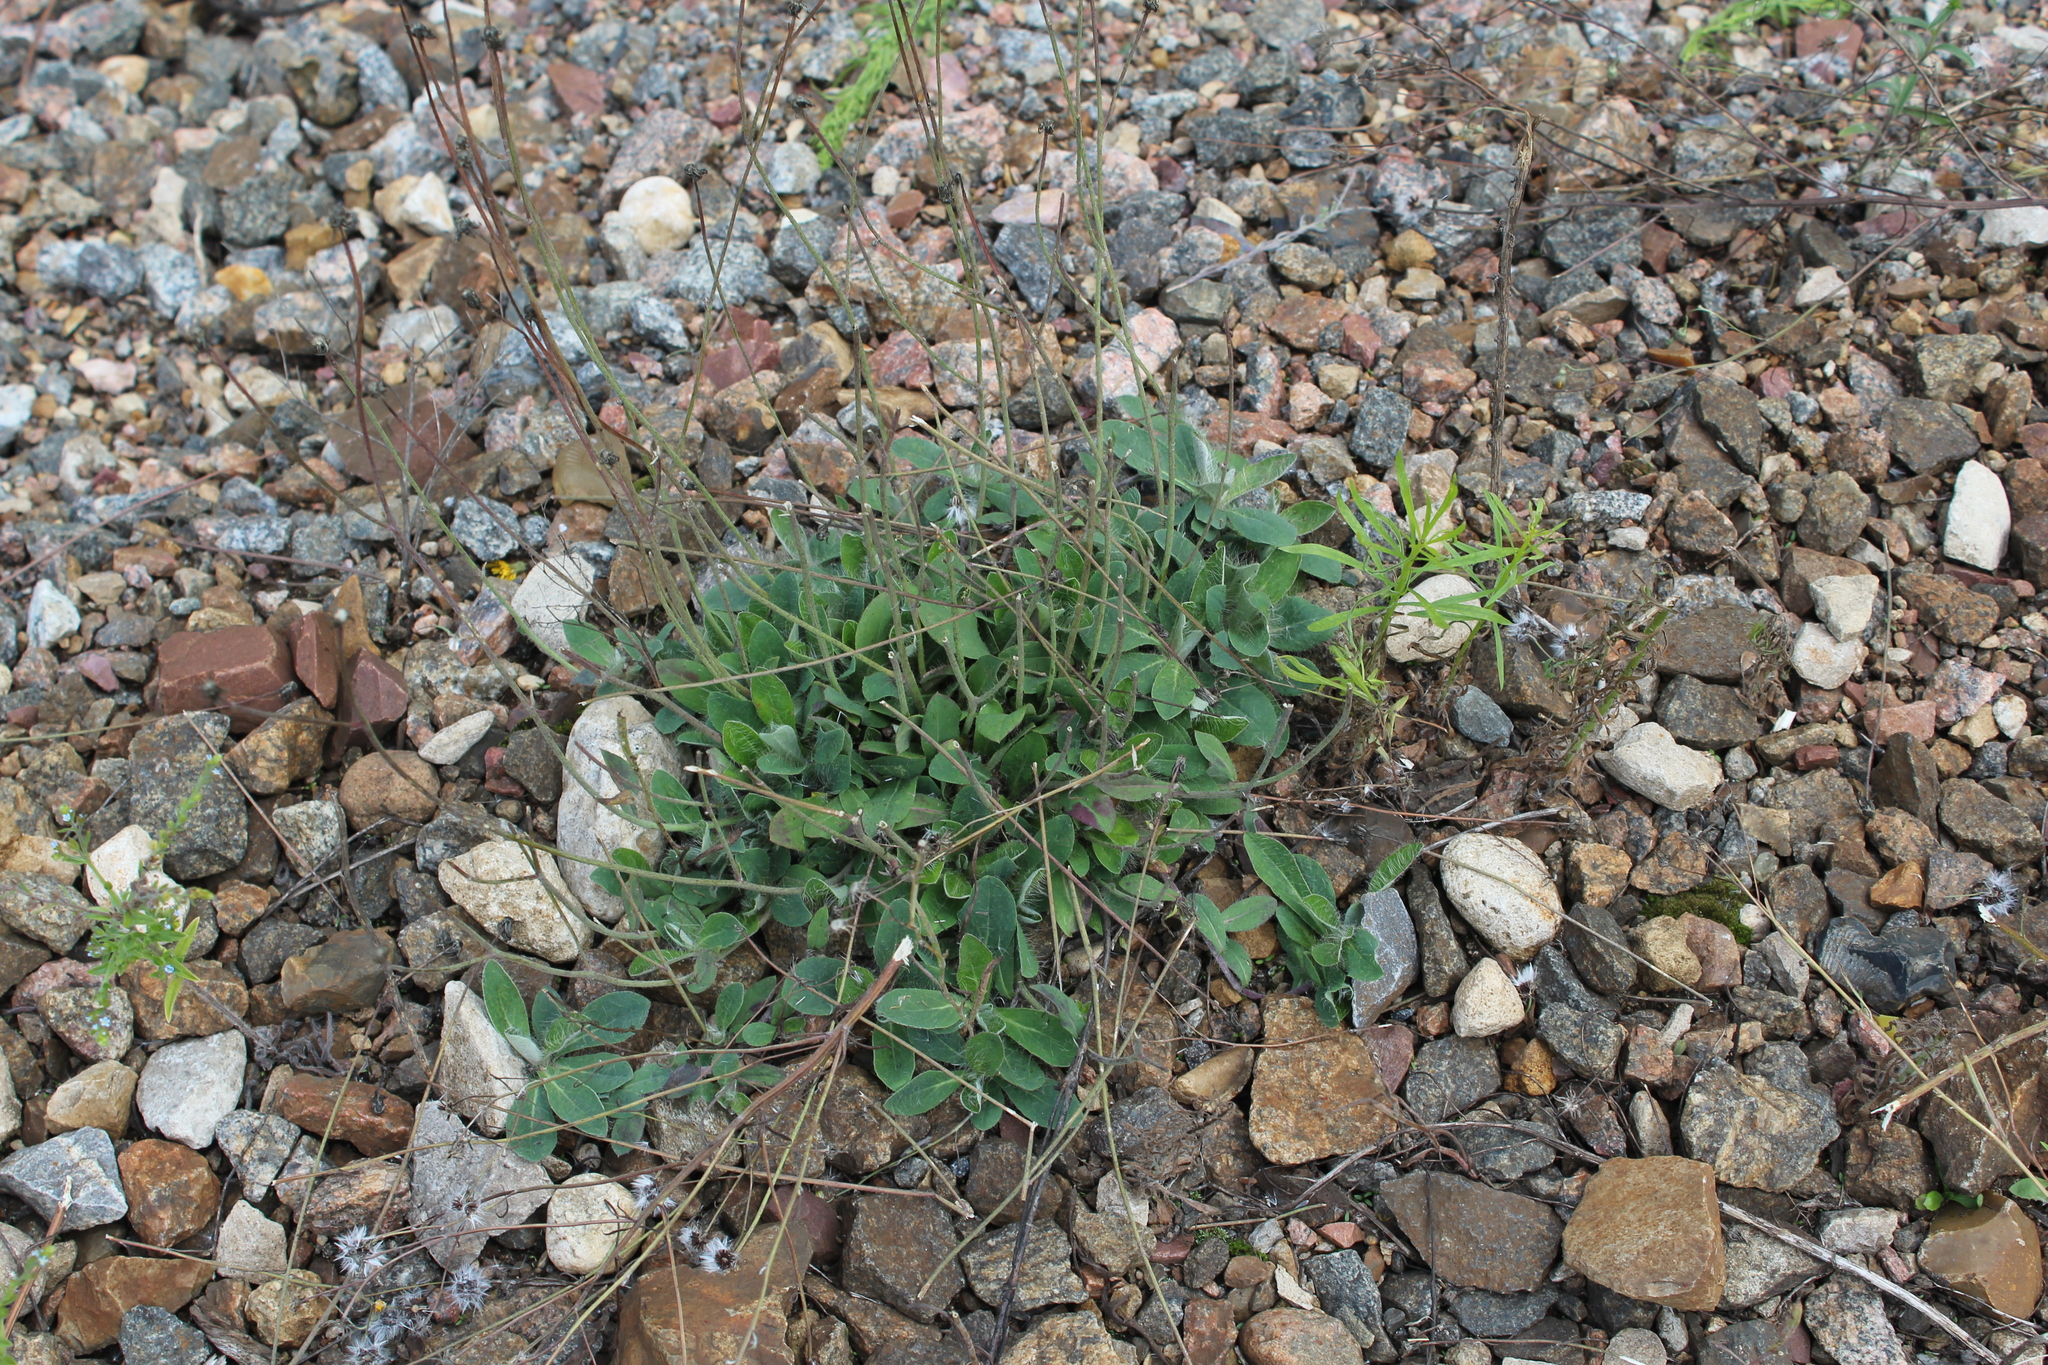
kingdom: Plantae
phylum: Tracheophyta
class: Magnoliopsida
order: Asterales
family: Asteraceae
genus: Pilosella
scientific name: Pilosella
